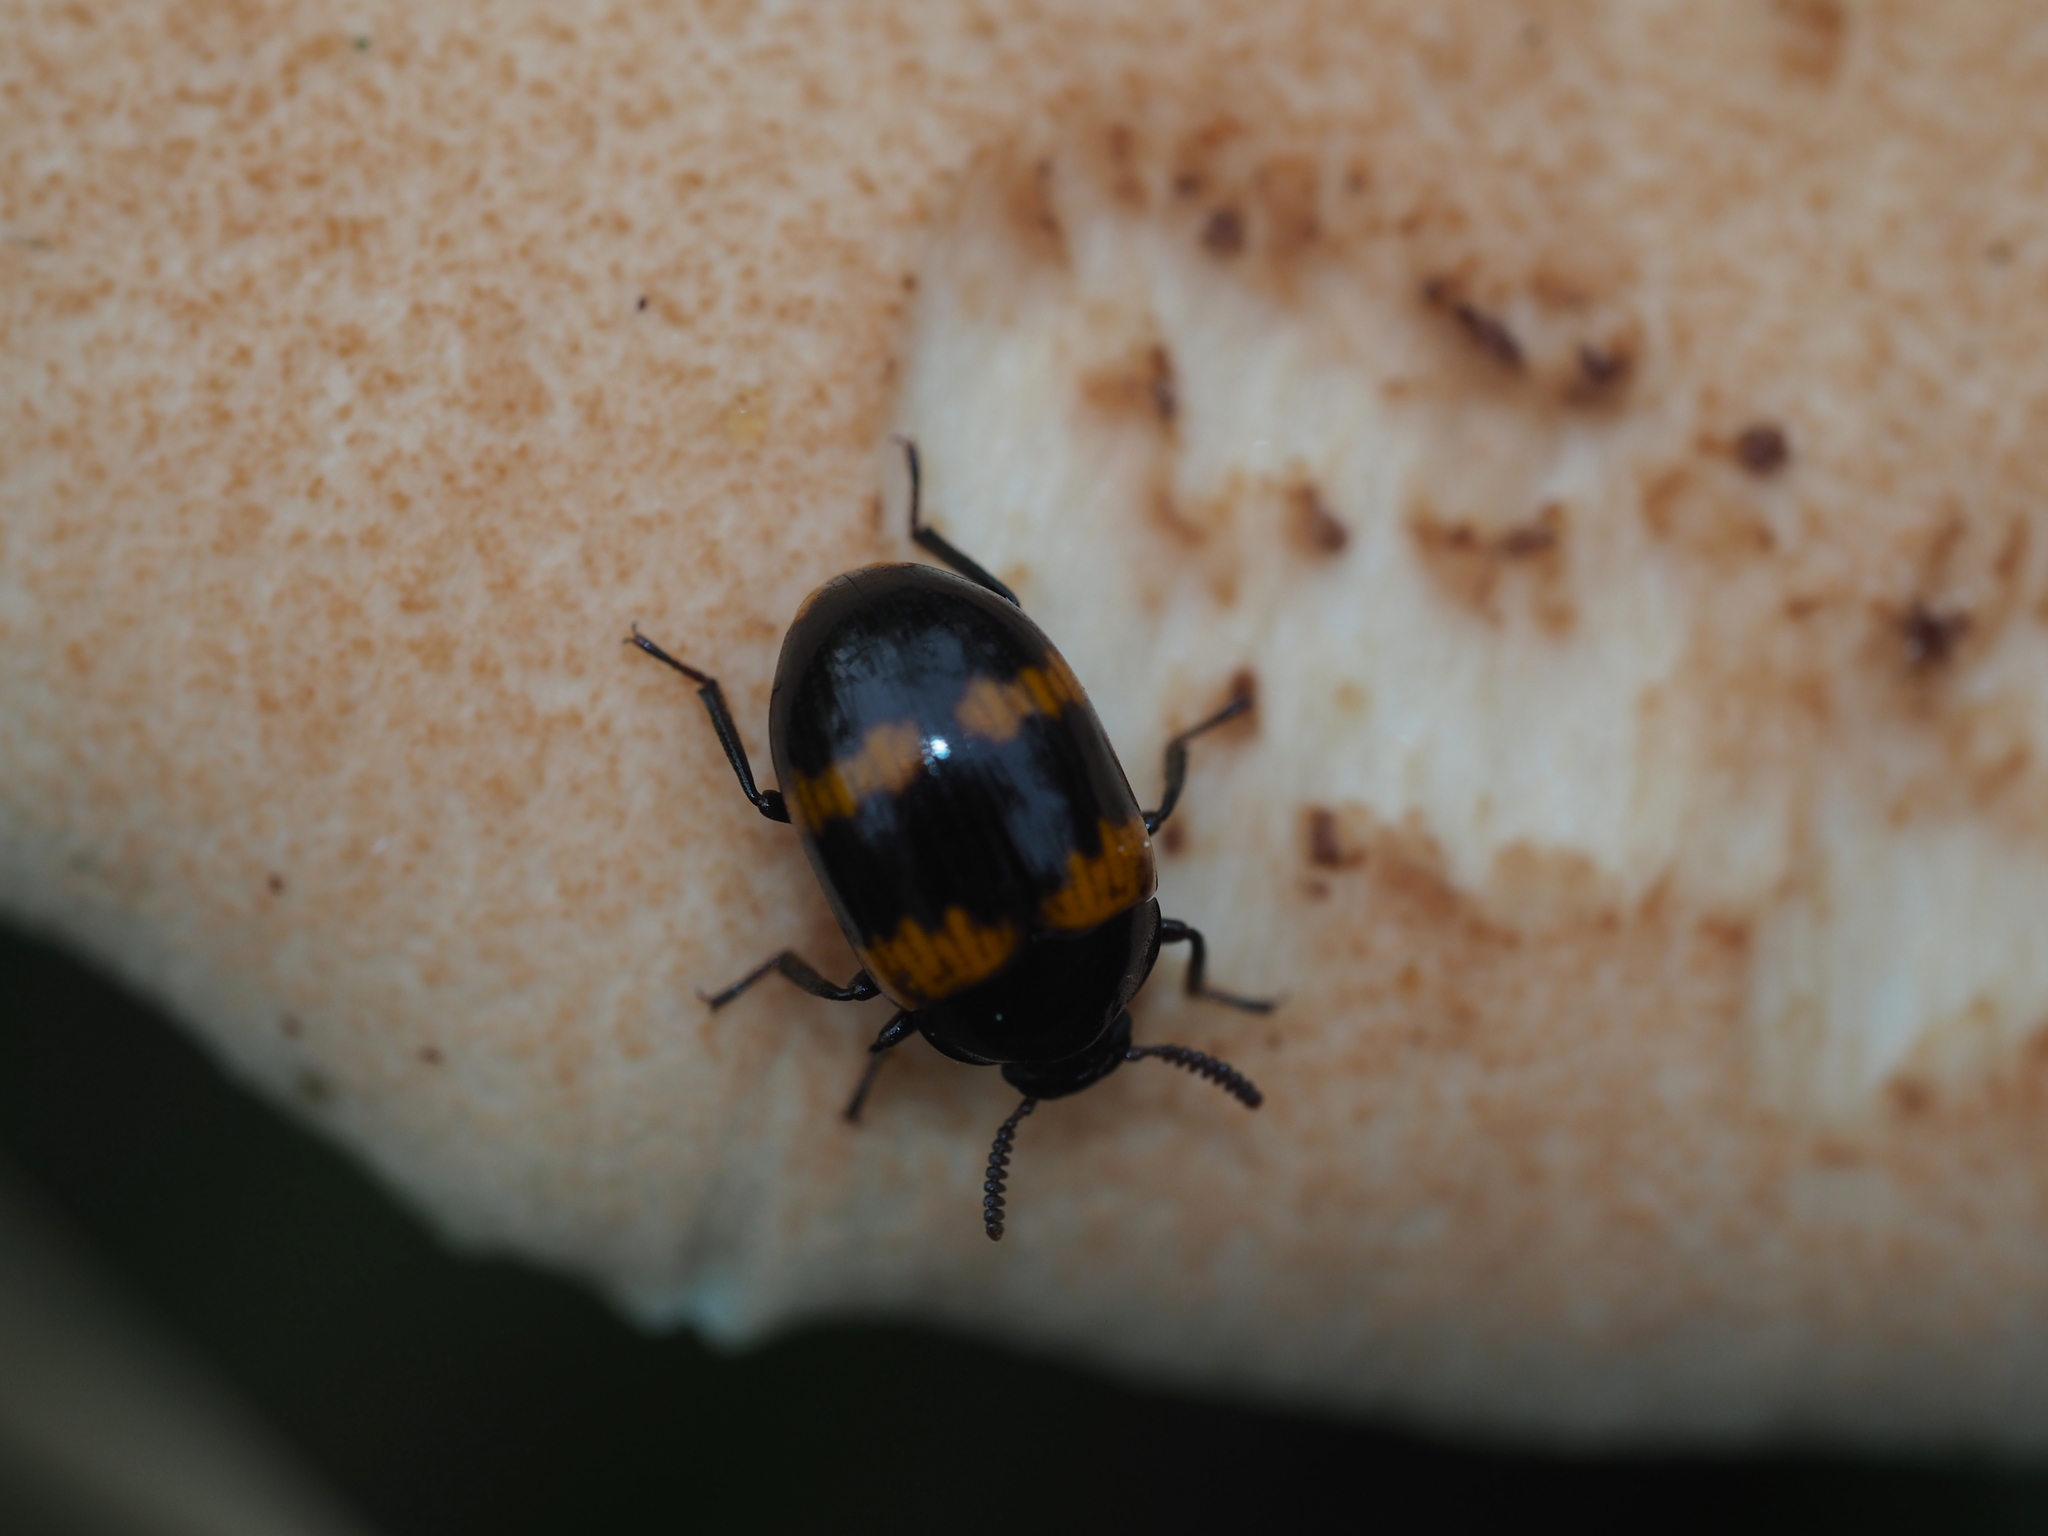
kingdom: Animalia
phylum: Arthropoda
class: Insecta
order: Coleoptera
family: Tenebrionidae
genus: Diaperis
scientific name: Diaperis boleti
